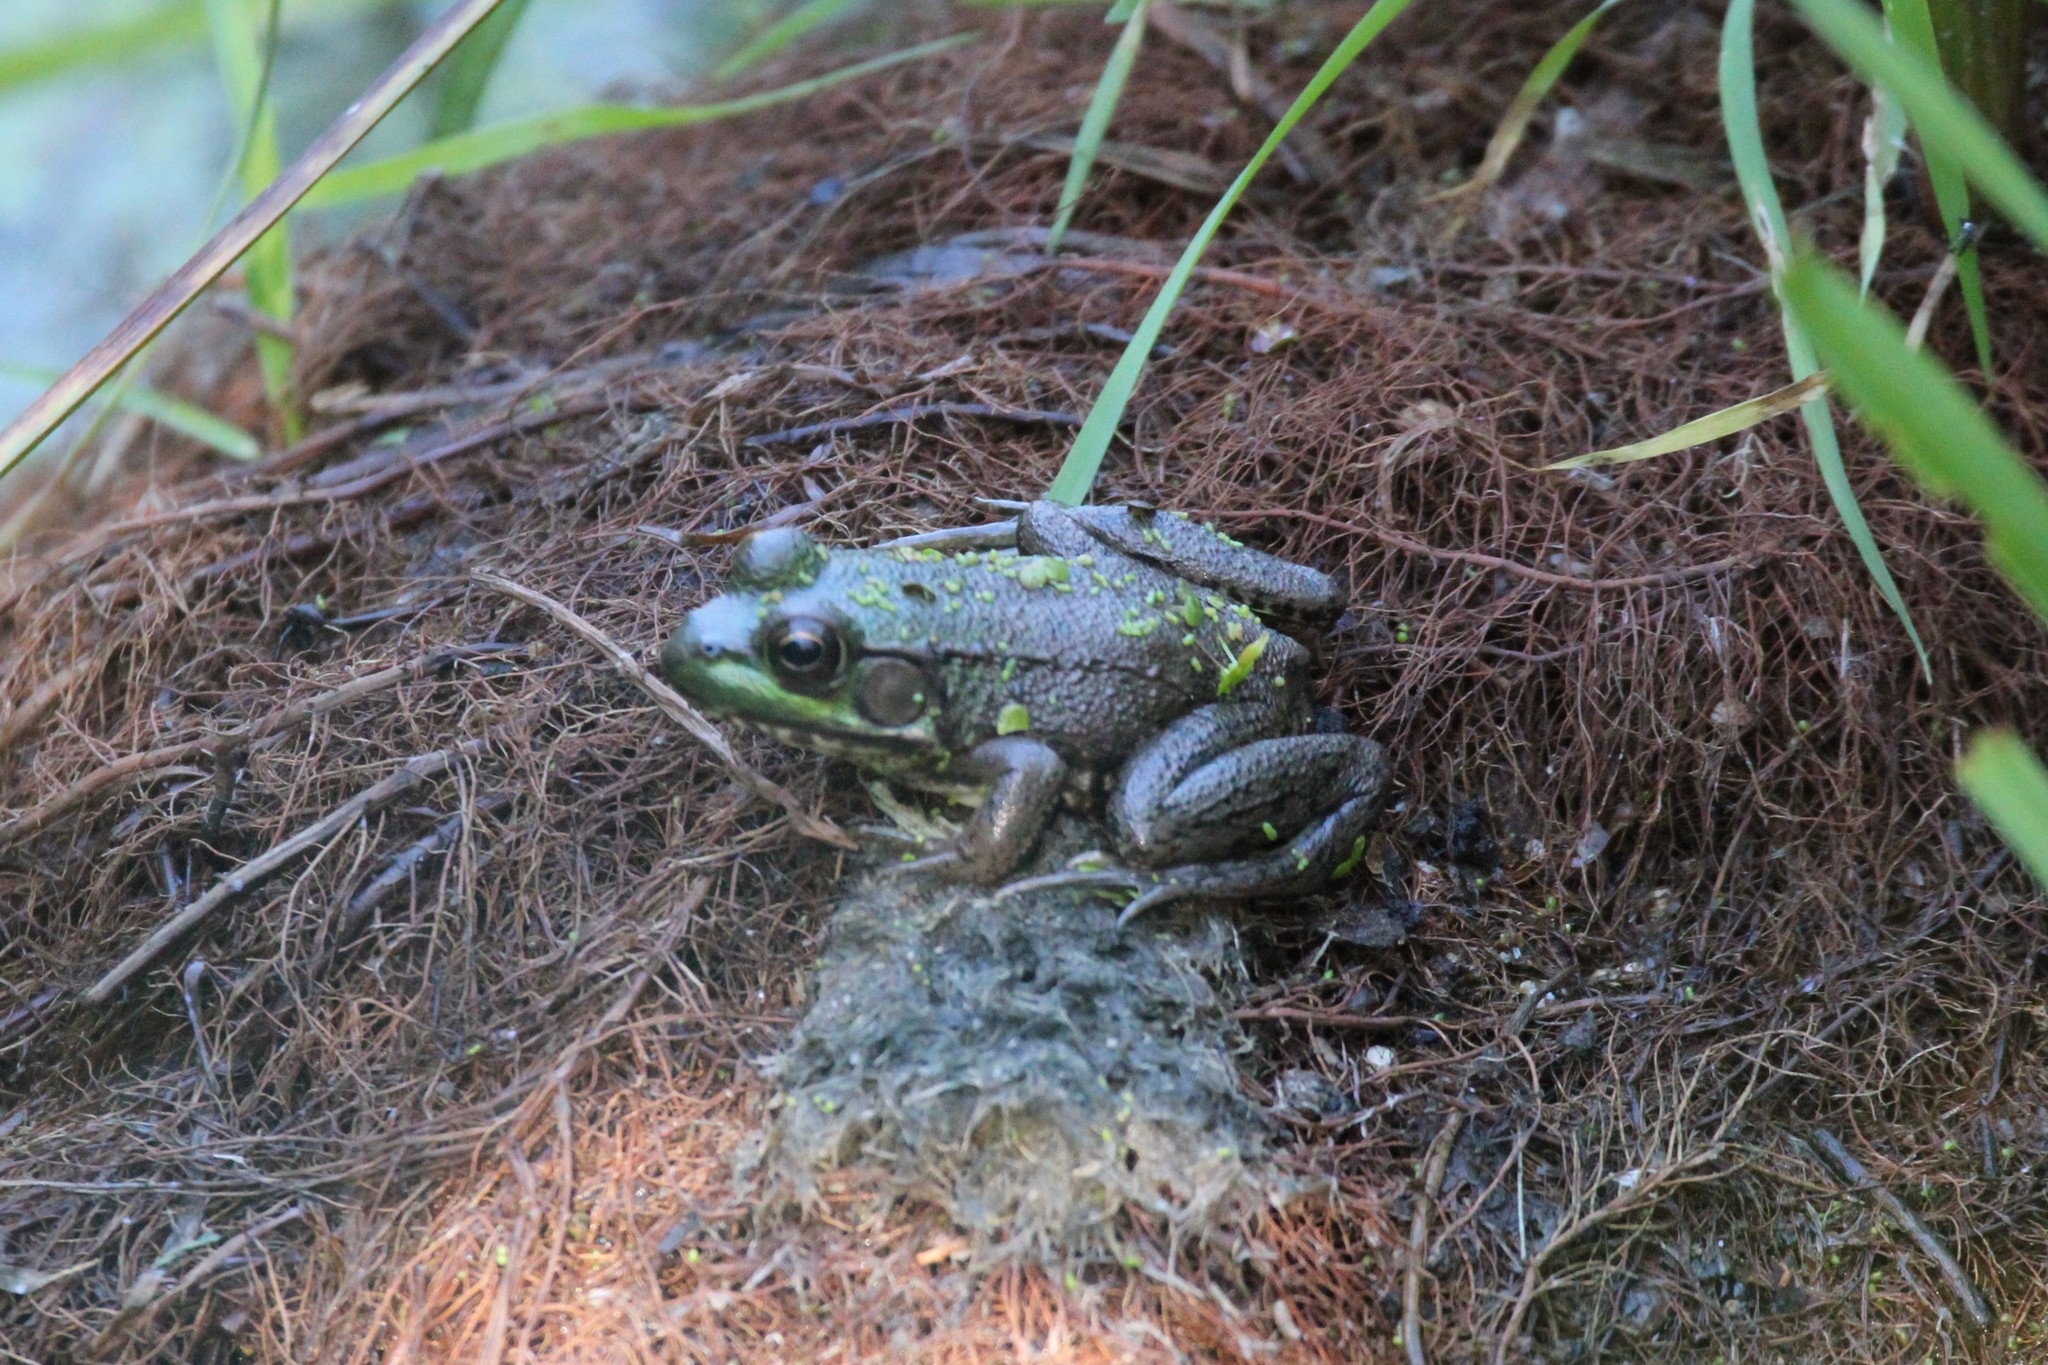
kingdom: Animalia
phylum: Chordata
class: Amphibia
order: Anura
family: Ranidae
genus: Lithobates
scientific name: Lithobates clamitans
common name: Green frog
